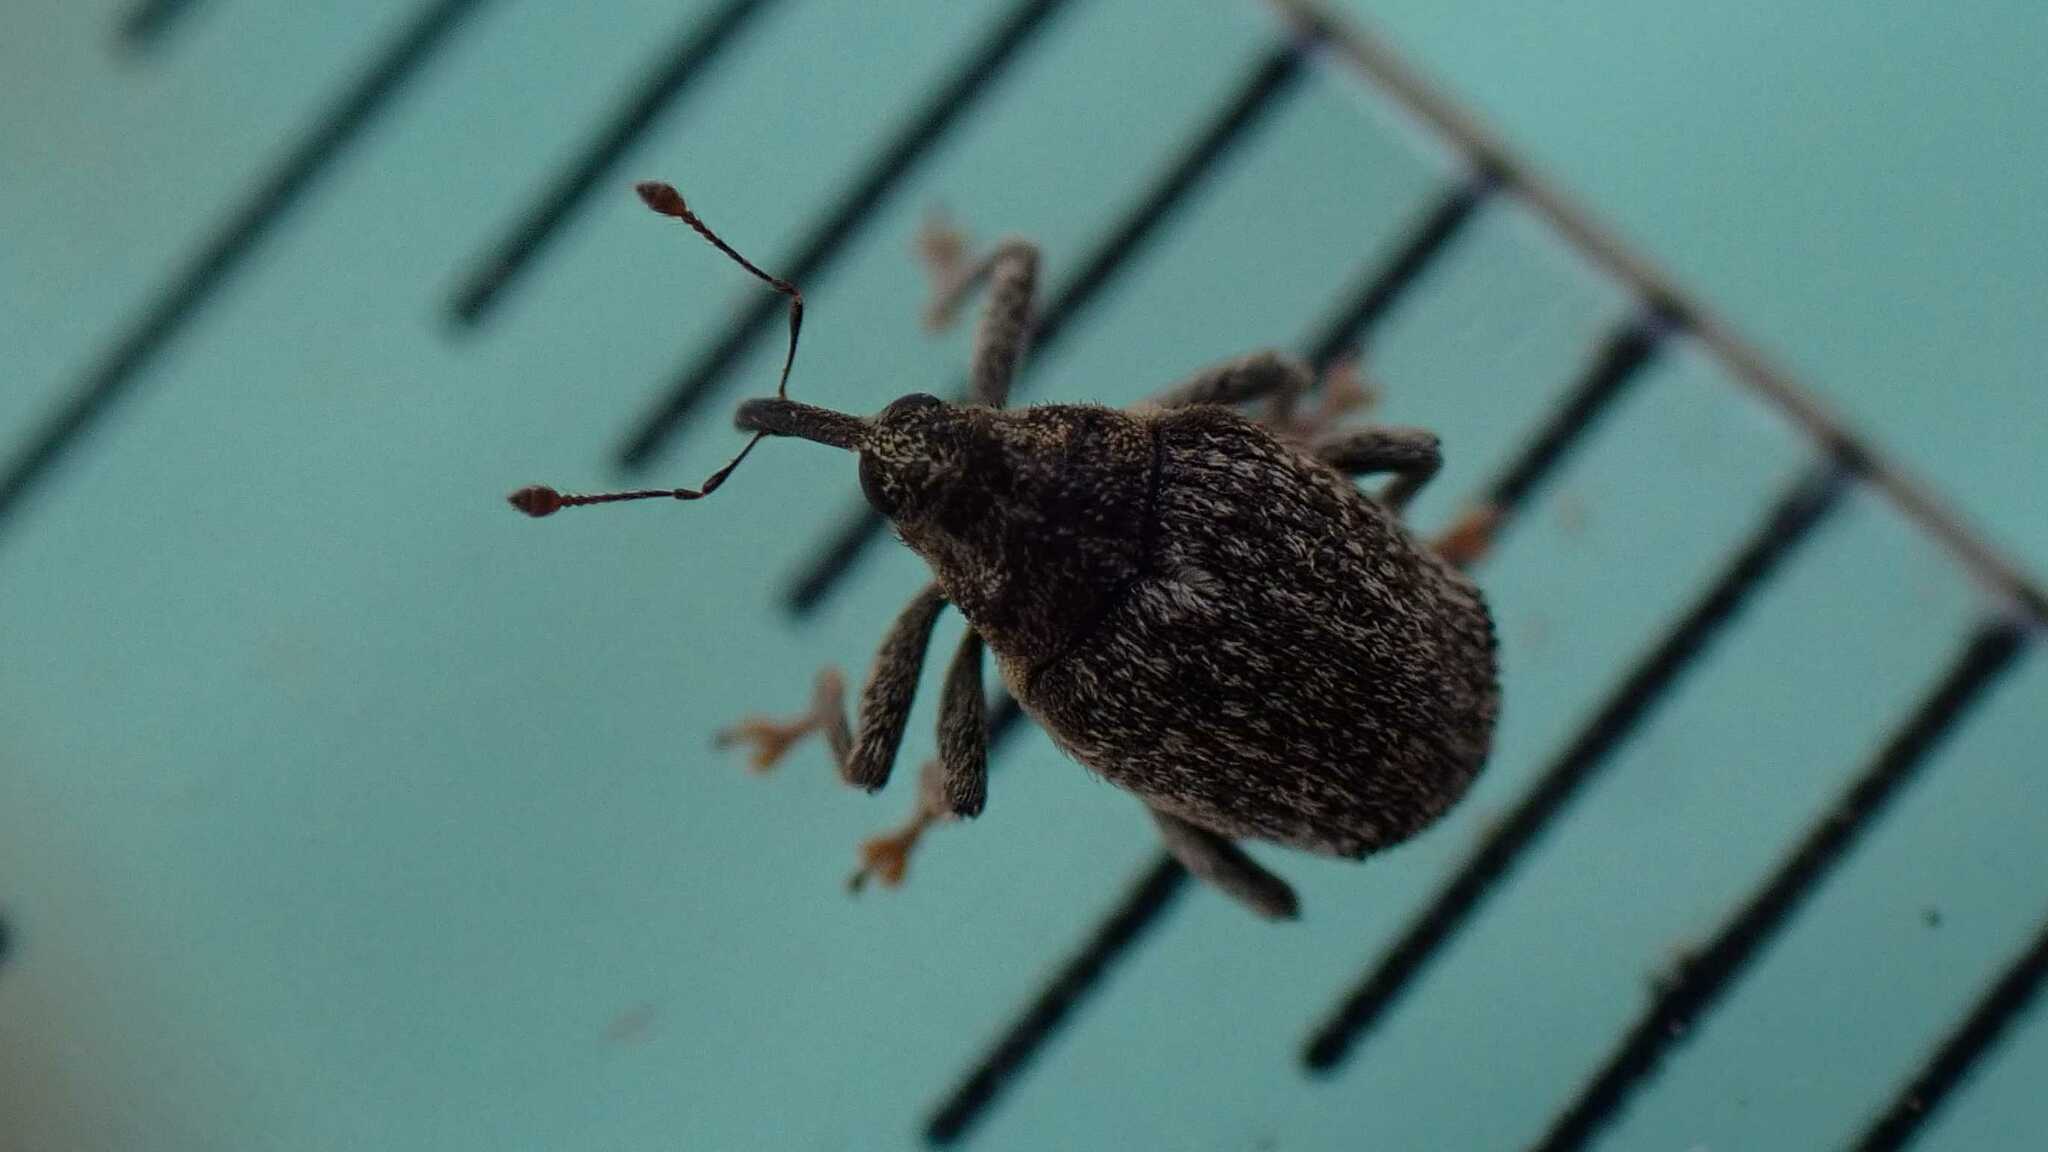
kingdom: Animalia
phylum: Arthropoda
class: Insecta
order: Coleoptera
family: Curculionidae
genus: Ceutorhynchus
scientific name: Ceutorhynchus pallidactylus
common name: Cabbage stem weavil
